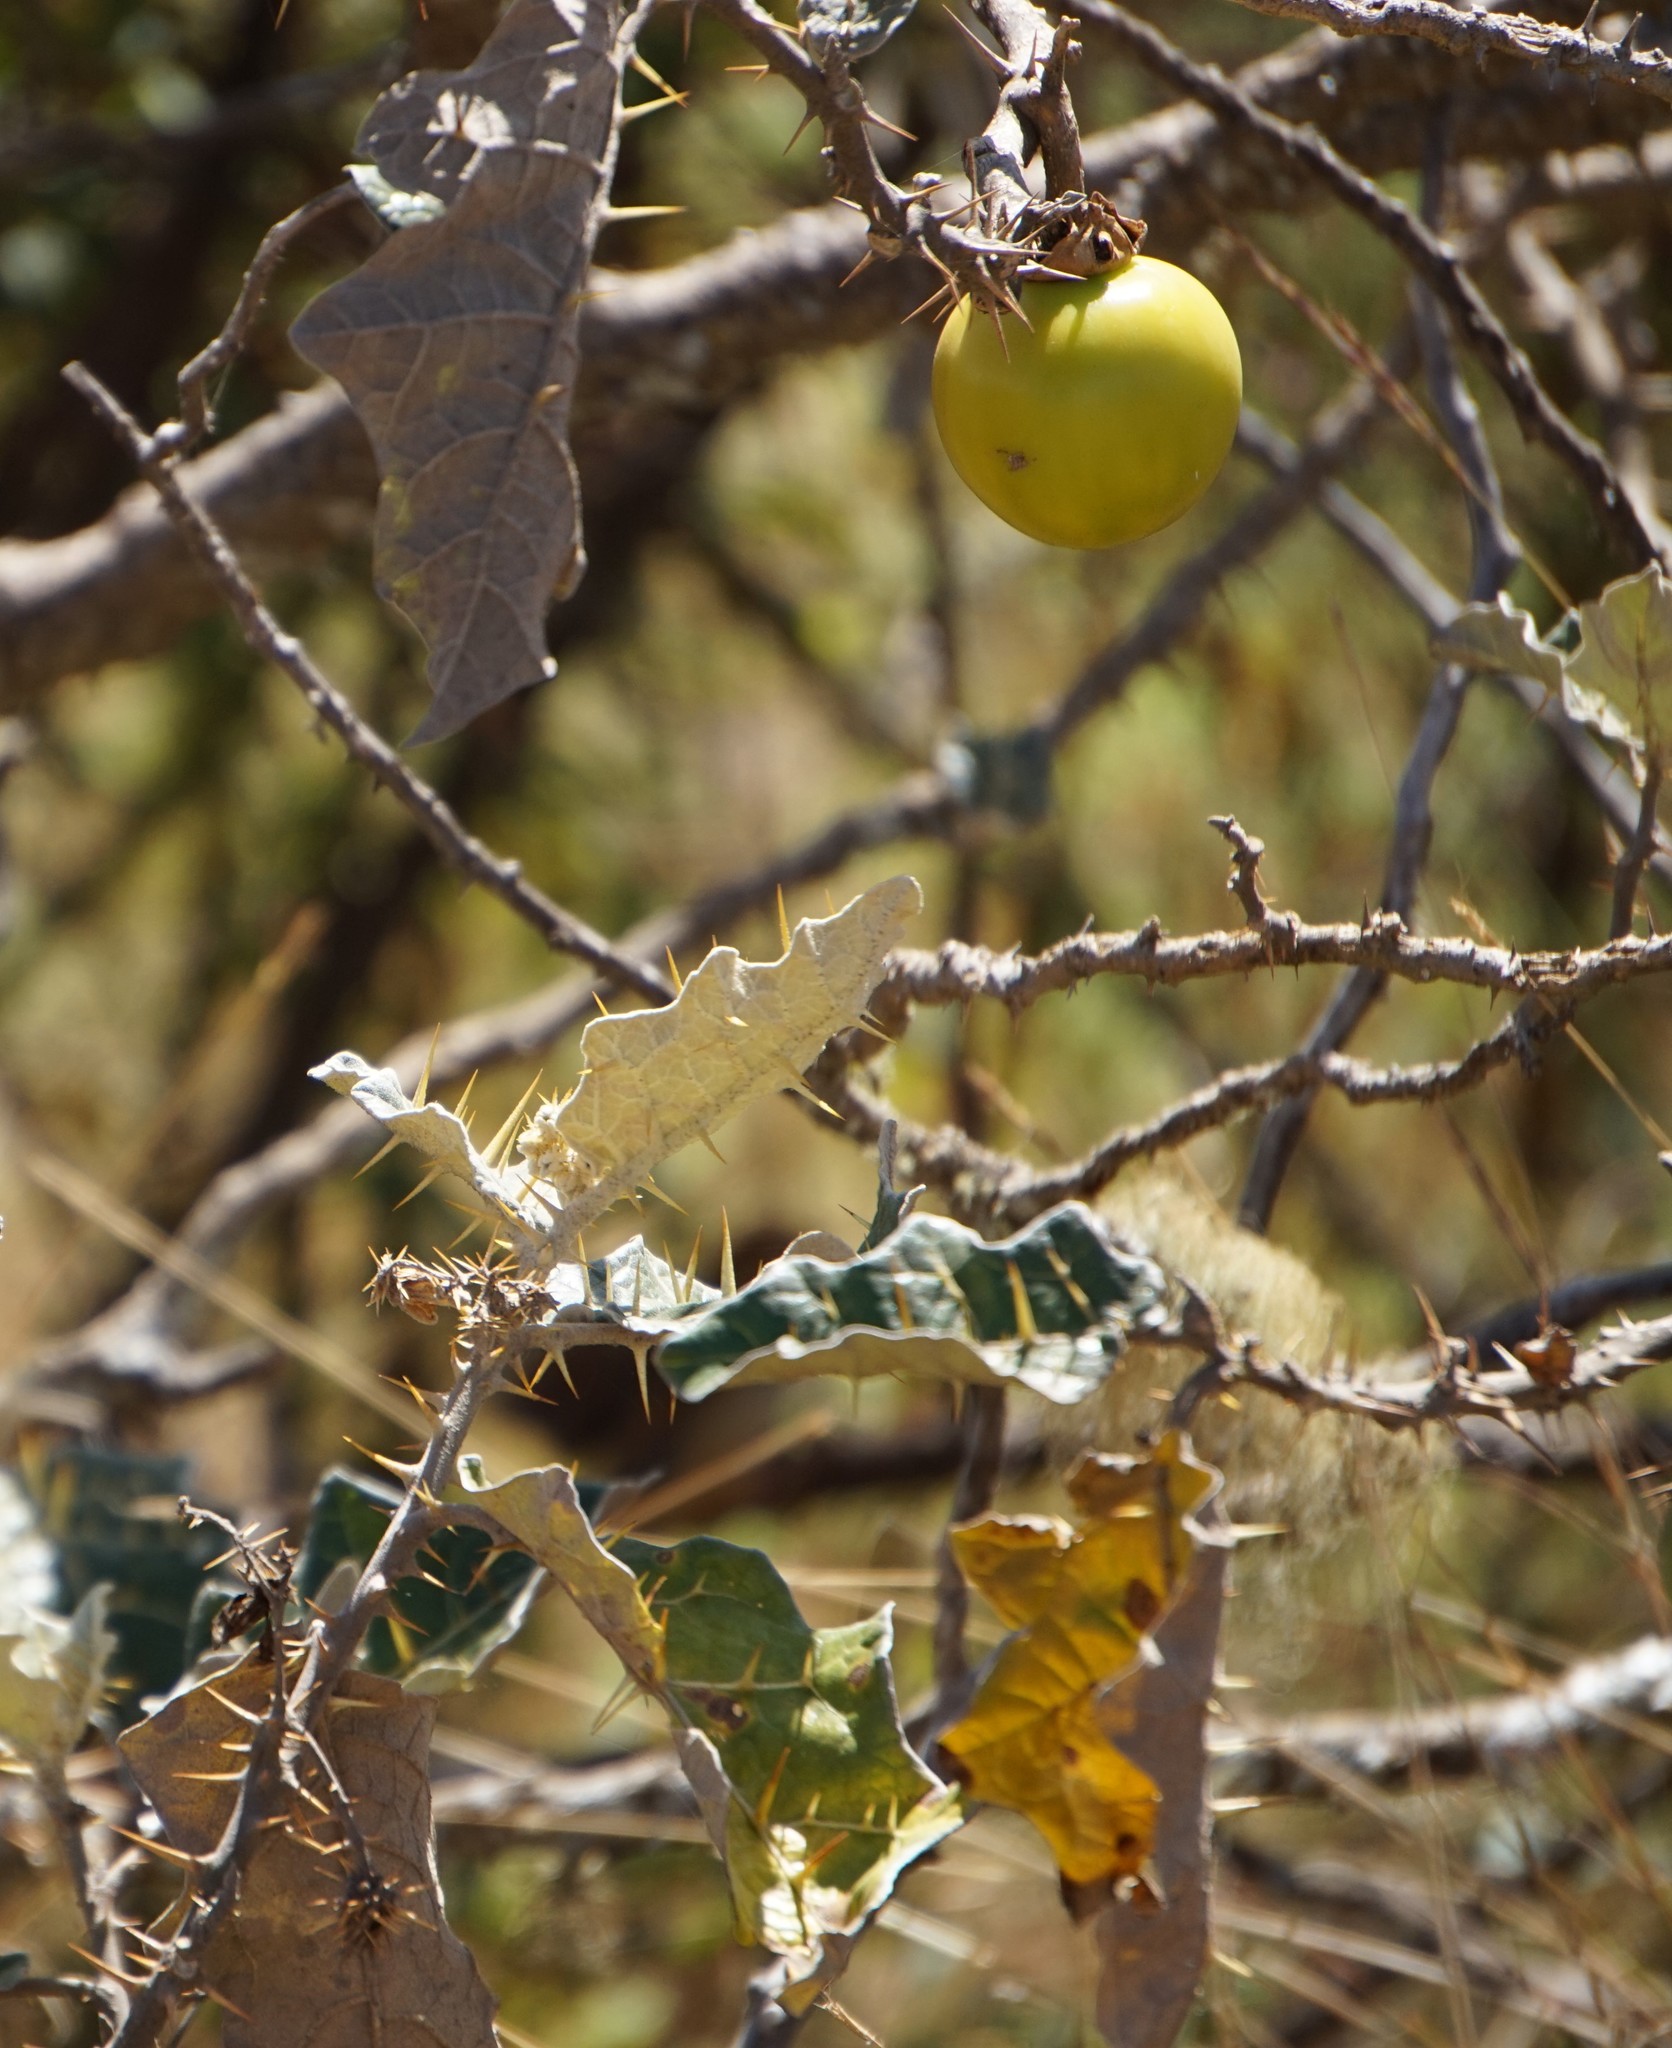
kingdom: Plantae
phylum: Tracheophyta
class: Magnoliopsida
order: Solanales
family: Solanaceae
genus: Solanum
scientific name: Solanum marginatum
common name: Purple african nightshade
